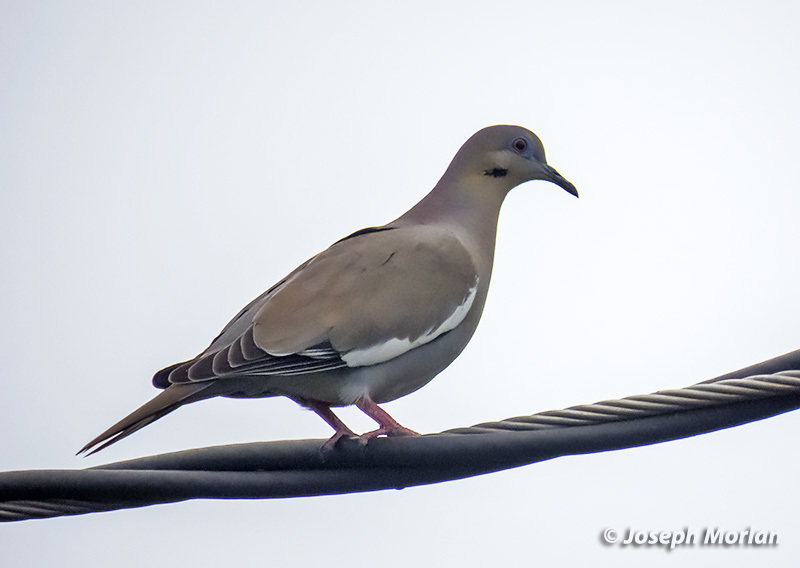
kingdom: Animalia
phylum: Chordata
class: Aves
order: Columbiformes
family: Columbidae
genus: Zenaida
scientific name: Zenaida asiatica
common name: White-winged dove
